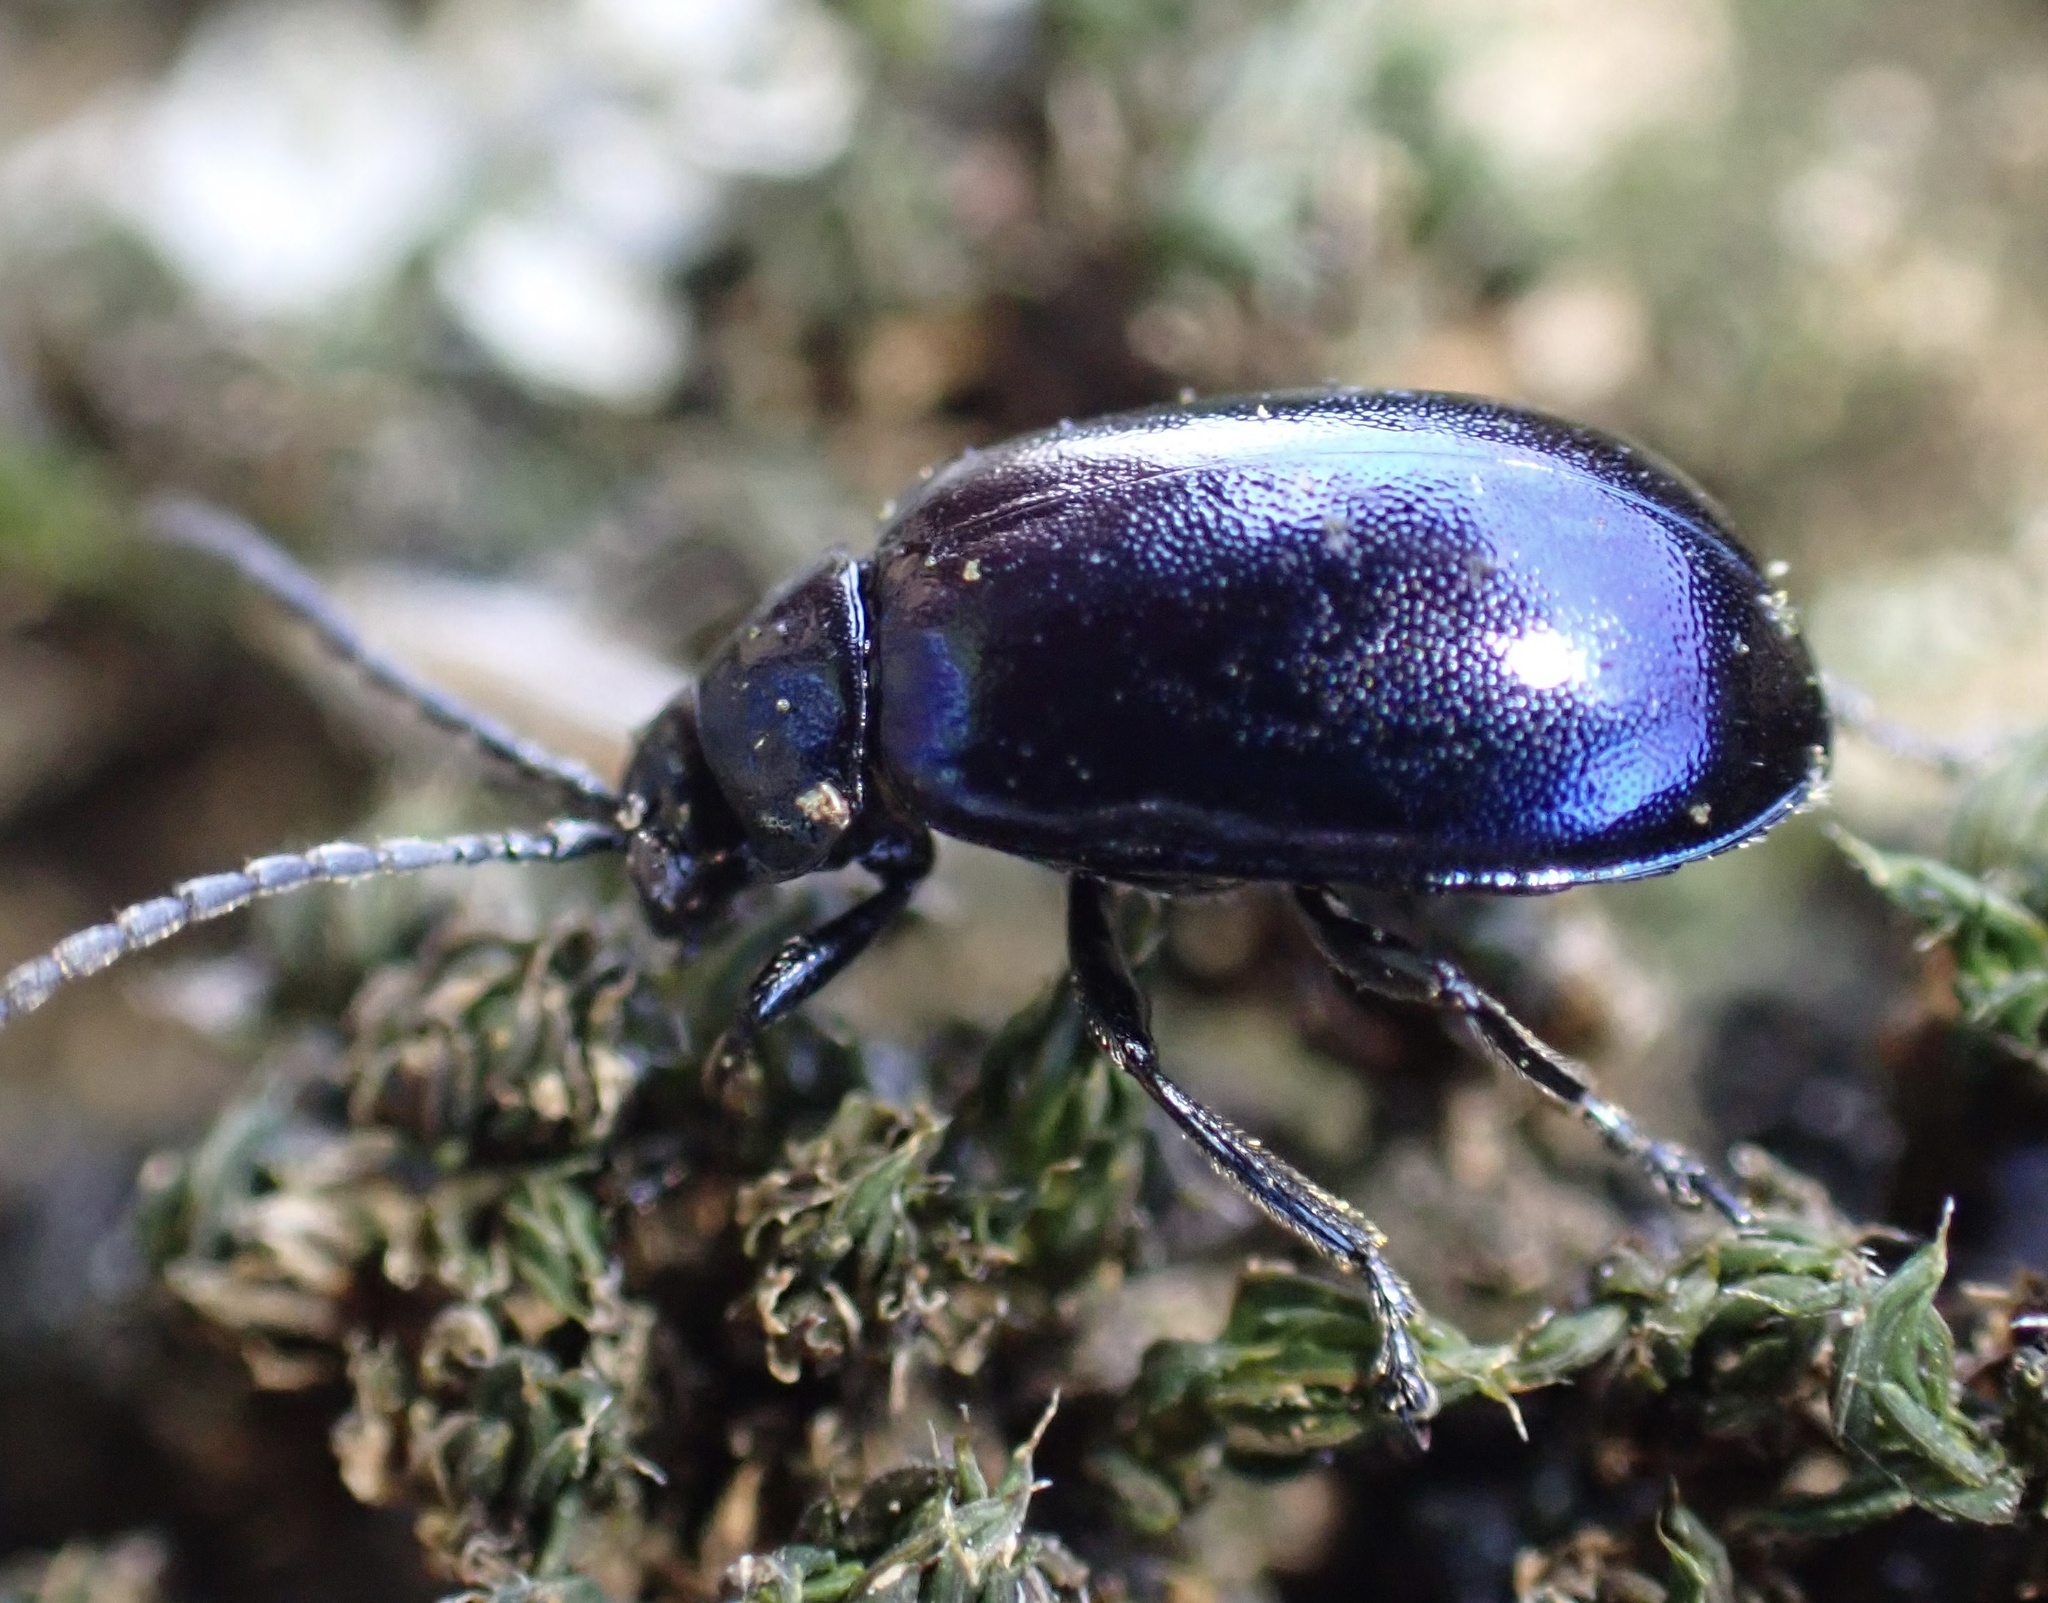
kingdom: Animalia
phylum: Arthropoda
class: Insecta
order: Coleoptera
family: Chrysomelidae
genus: Agelastica
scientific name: Agelastica alni
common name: Alder leaf beetle
